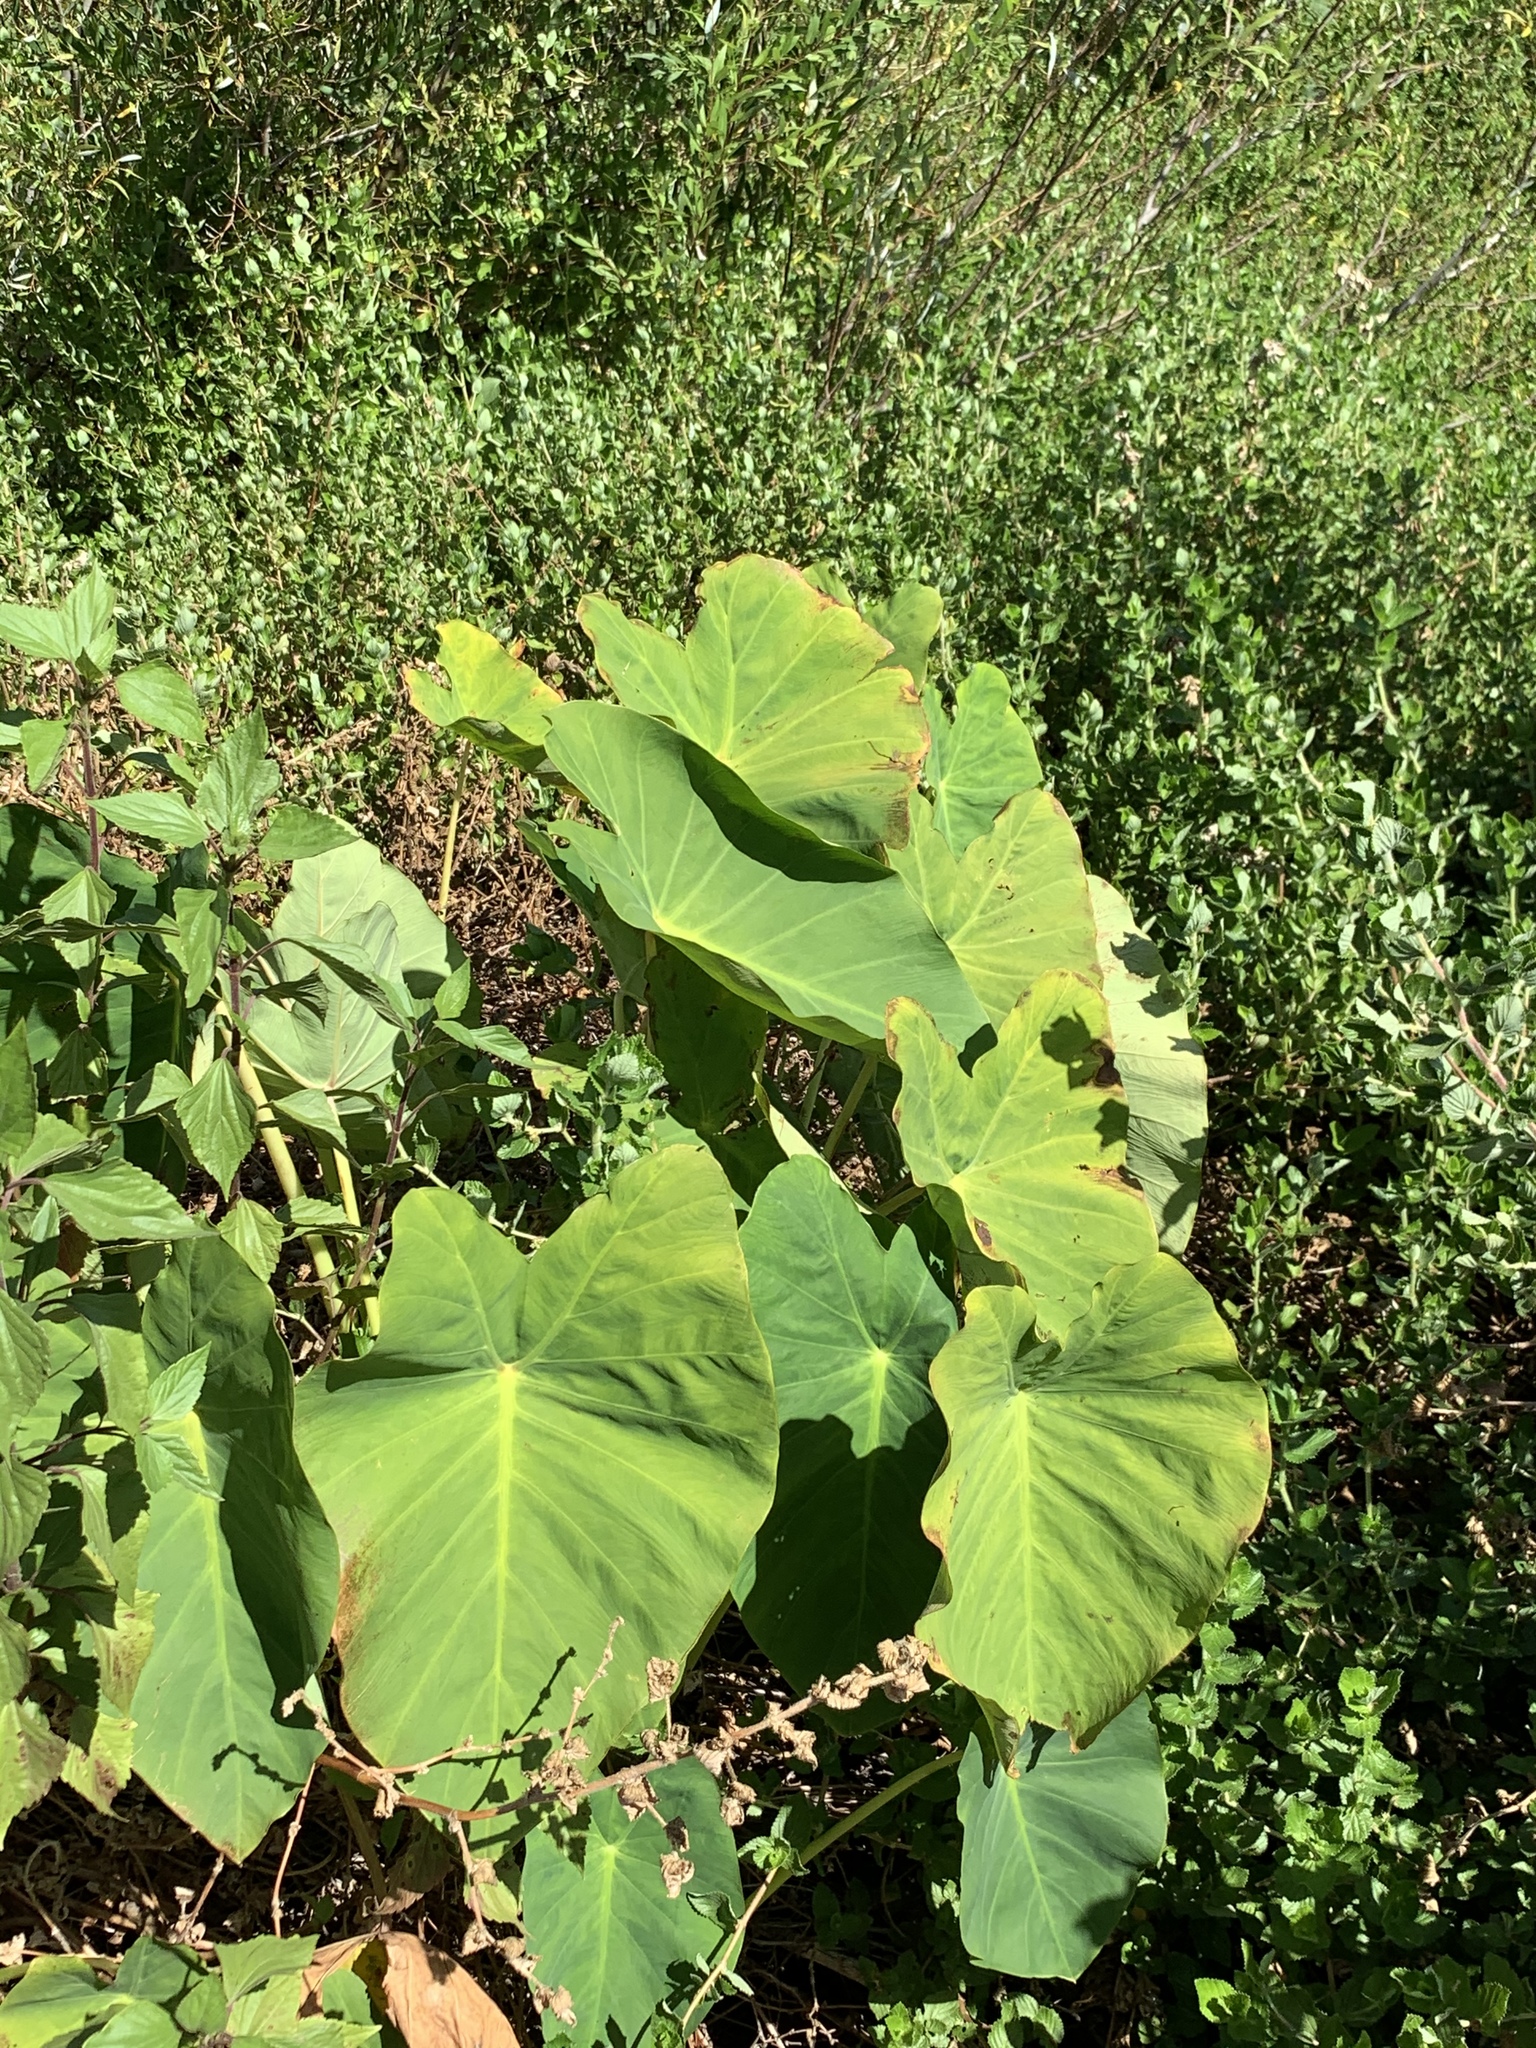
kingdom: Plantae
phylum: Tracheophyta
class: Liliopsida
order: Alismatales
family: Araceae
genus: Colocasia
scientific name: Colocasia esculenta
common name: Taro
